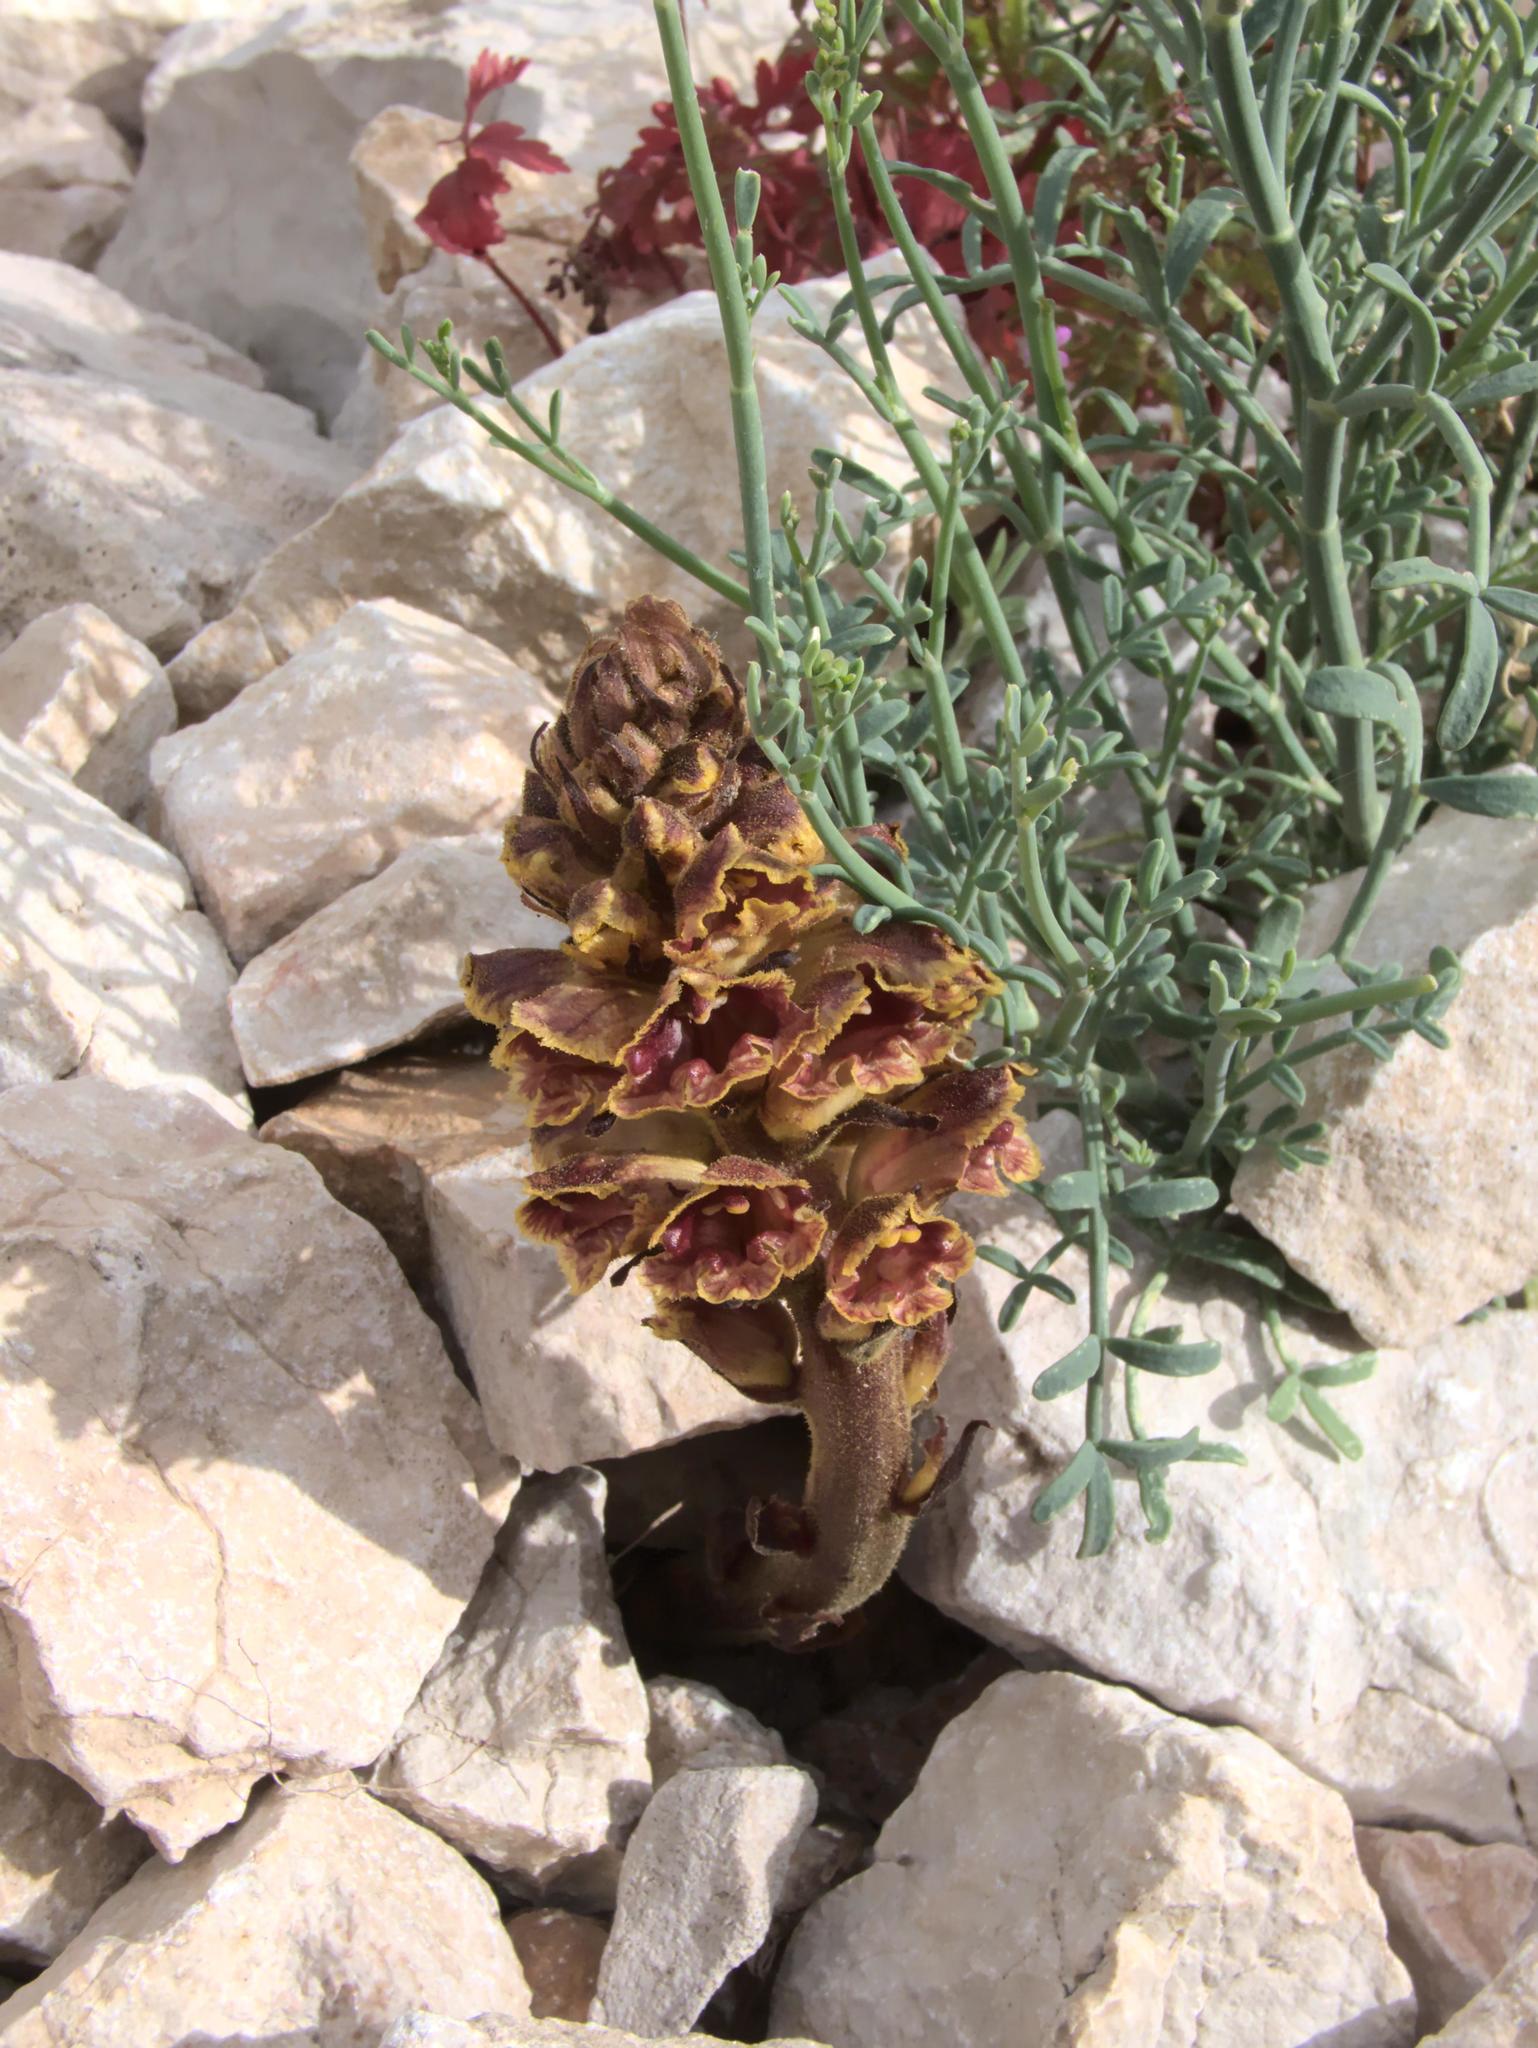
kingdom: Plantae
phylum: Tracheophyta
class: Magnoliopsida
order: Lamiales
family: Orobanchaceae
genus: Orobanche
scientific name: Orobanche gracilis
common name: Slender broomrape
